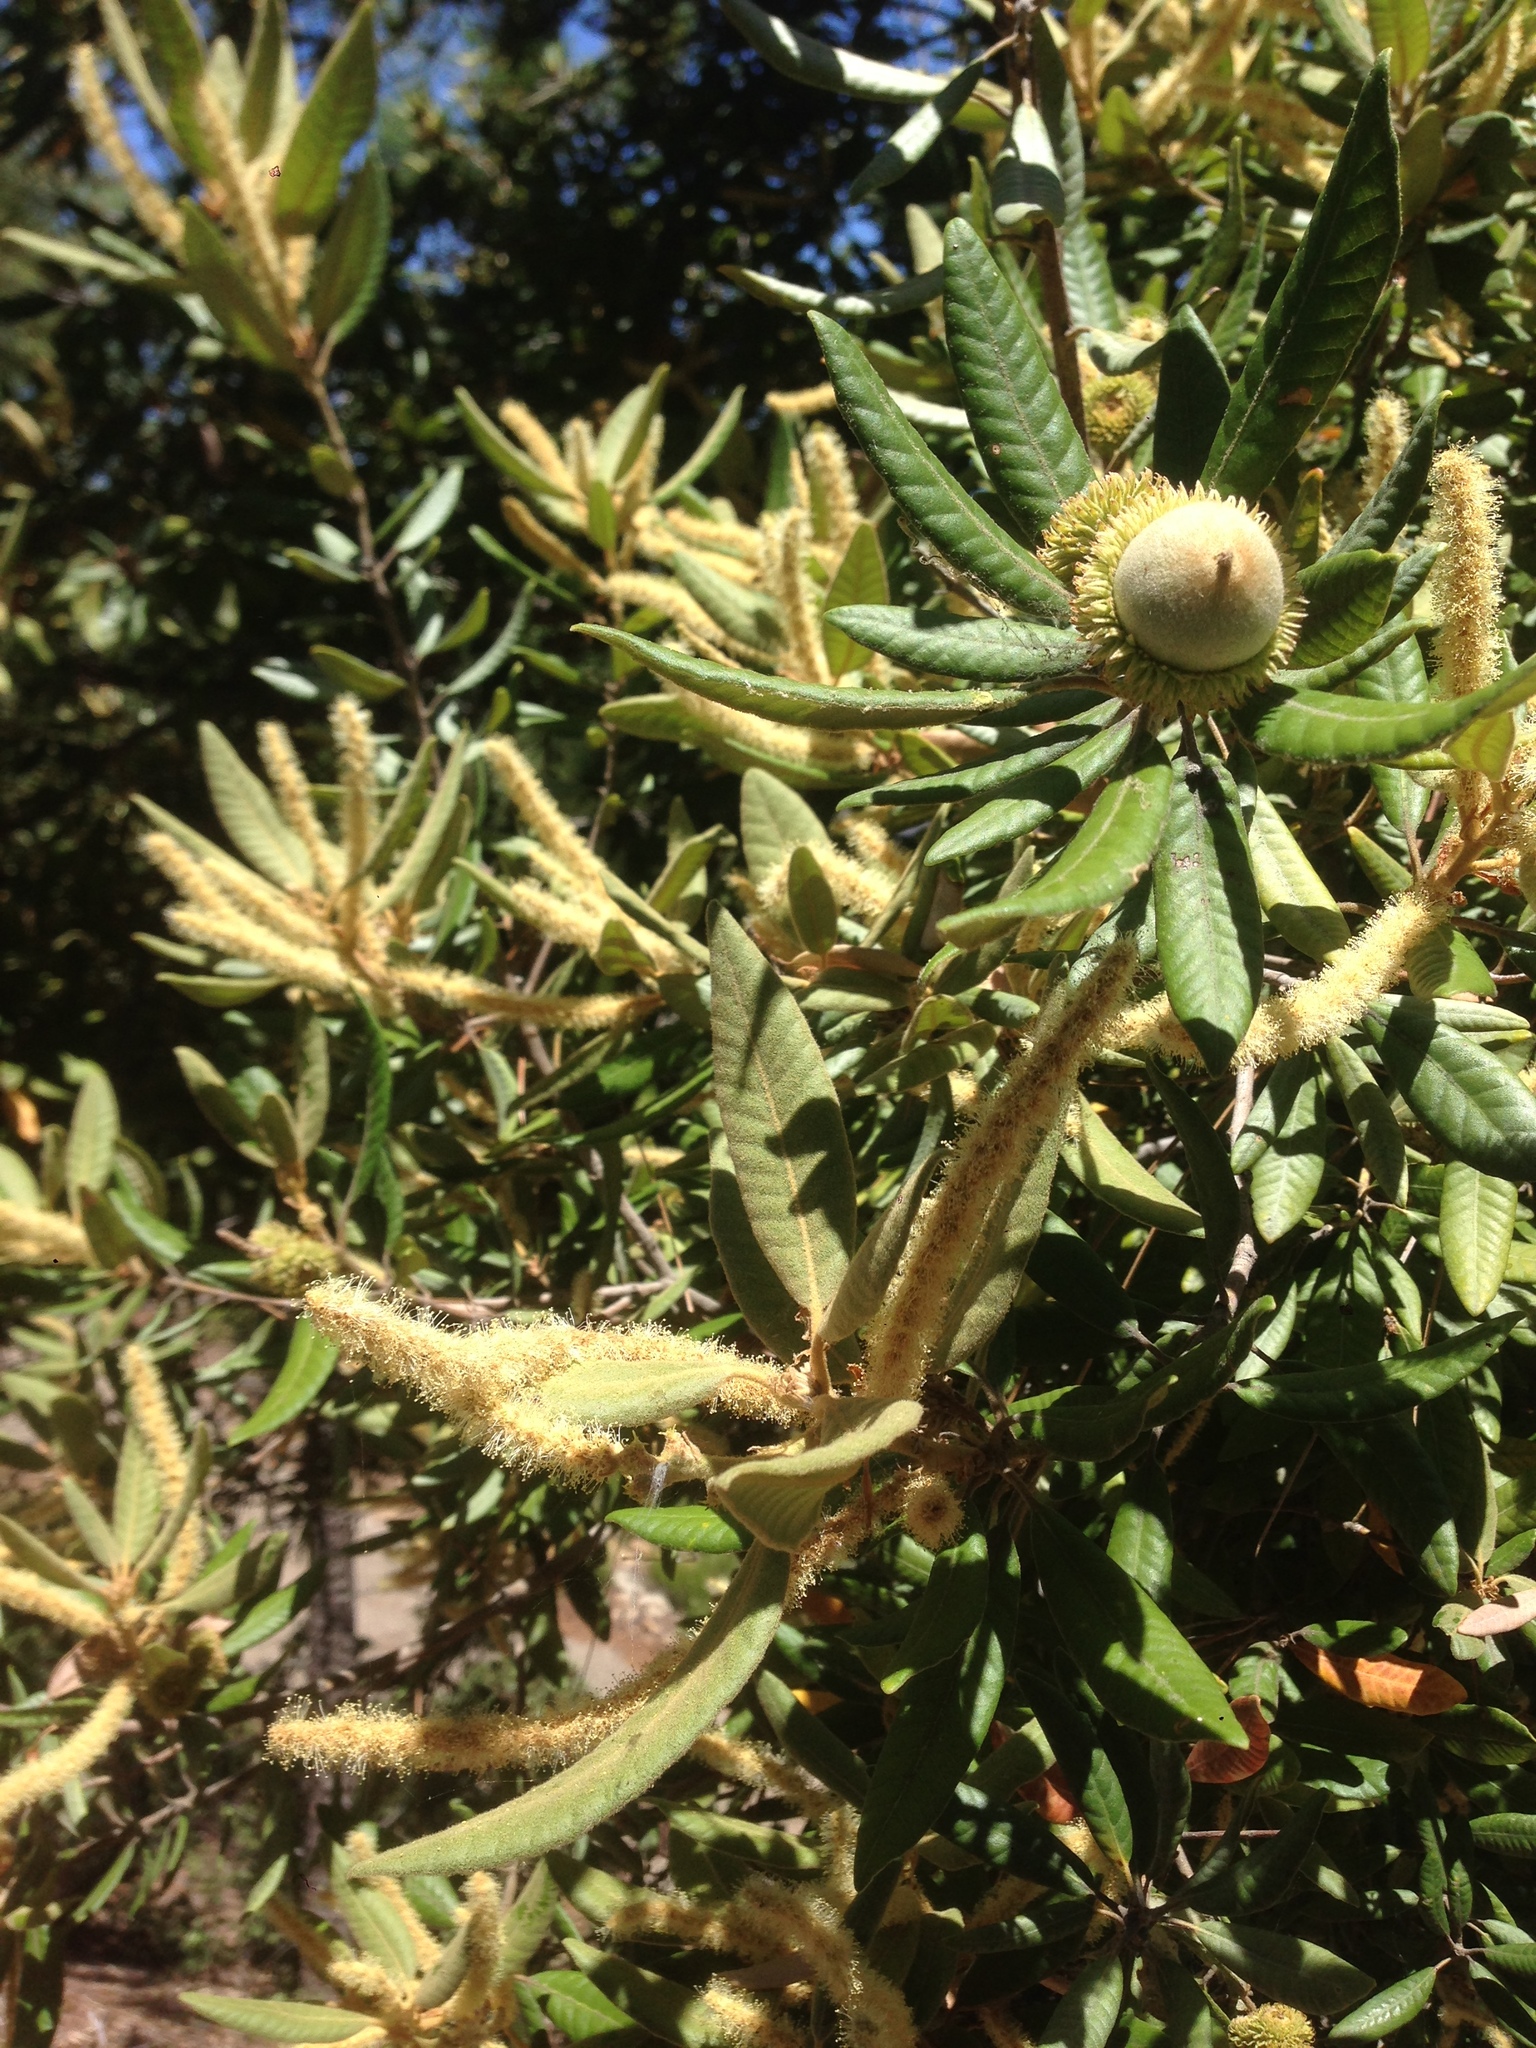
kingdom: Plantae
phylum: Tracheophyta
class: Magnoliopsida
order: Fagales
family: Fagaceae
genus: Notholithocarpus
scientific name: Notholithocarpus densiflorus
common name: Tan bark oak
